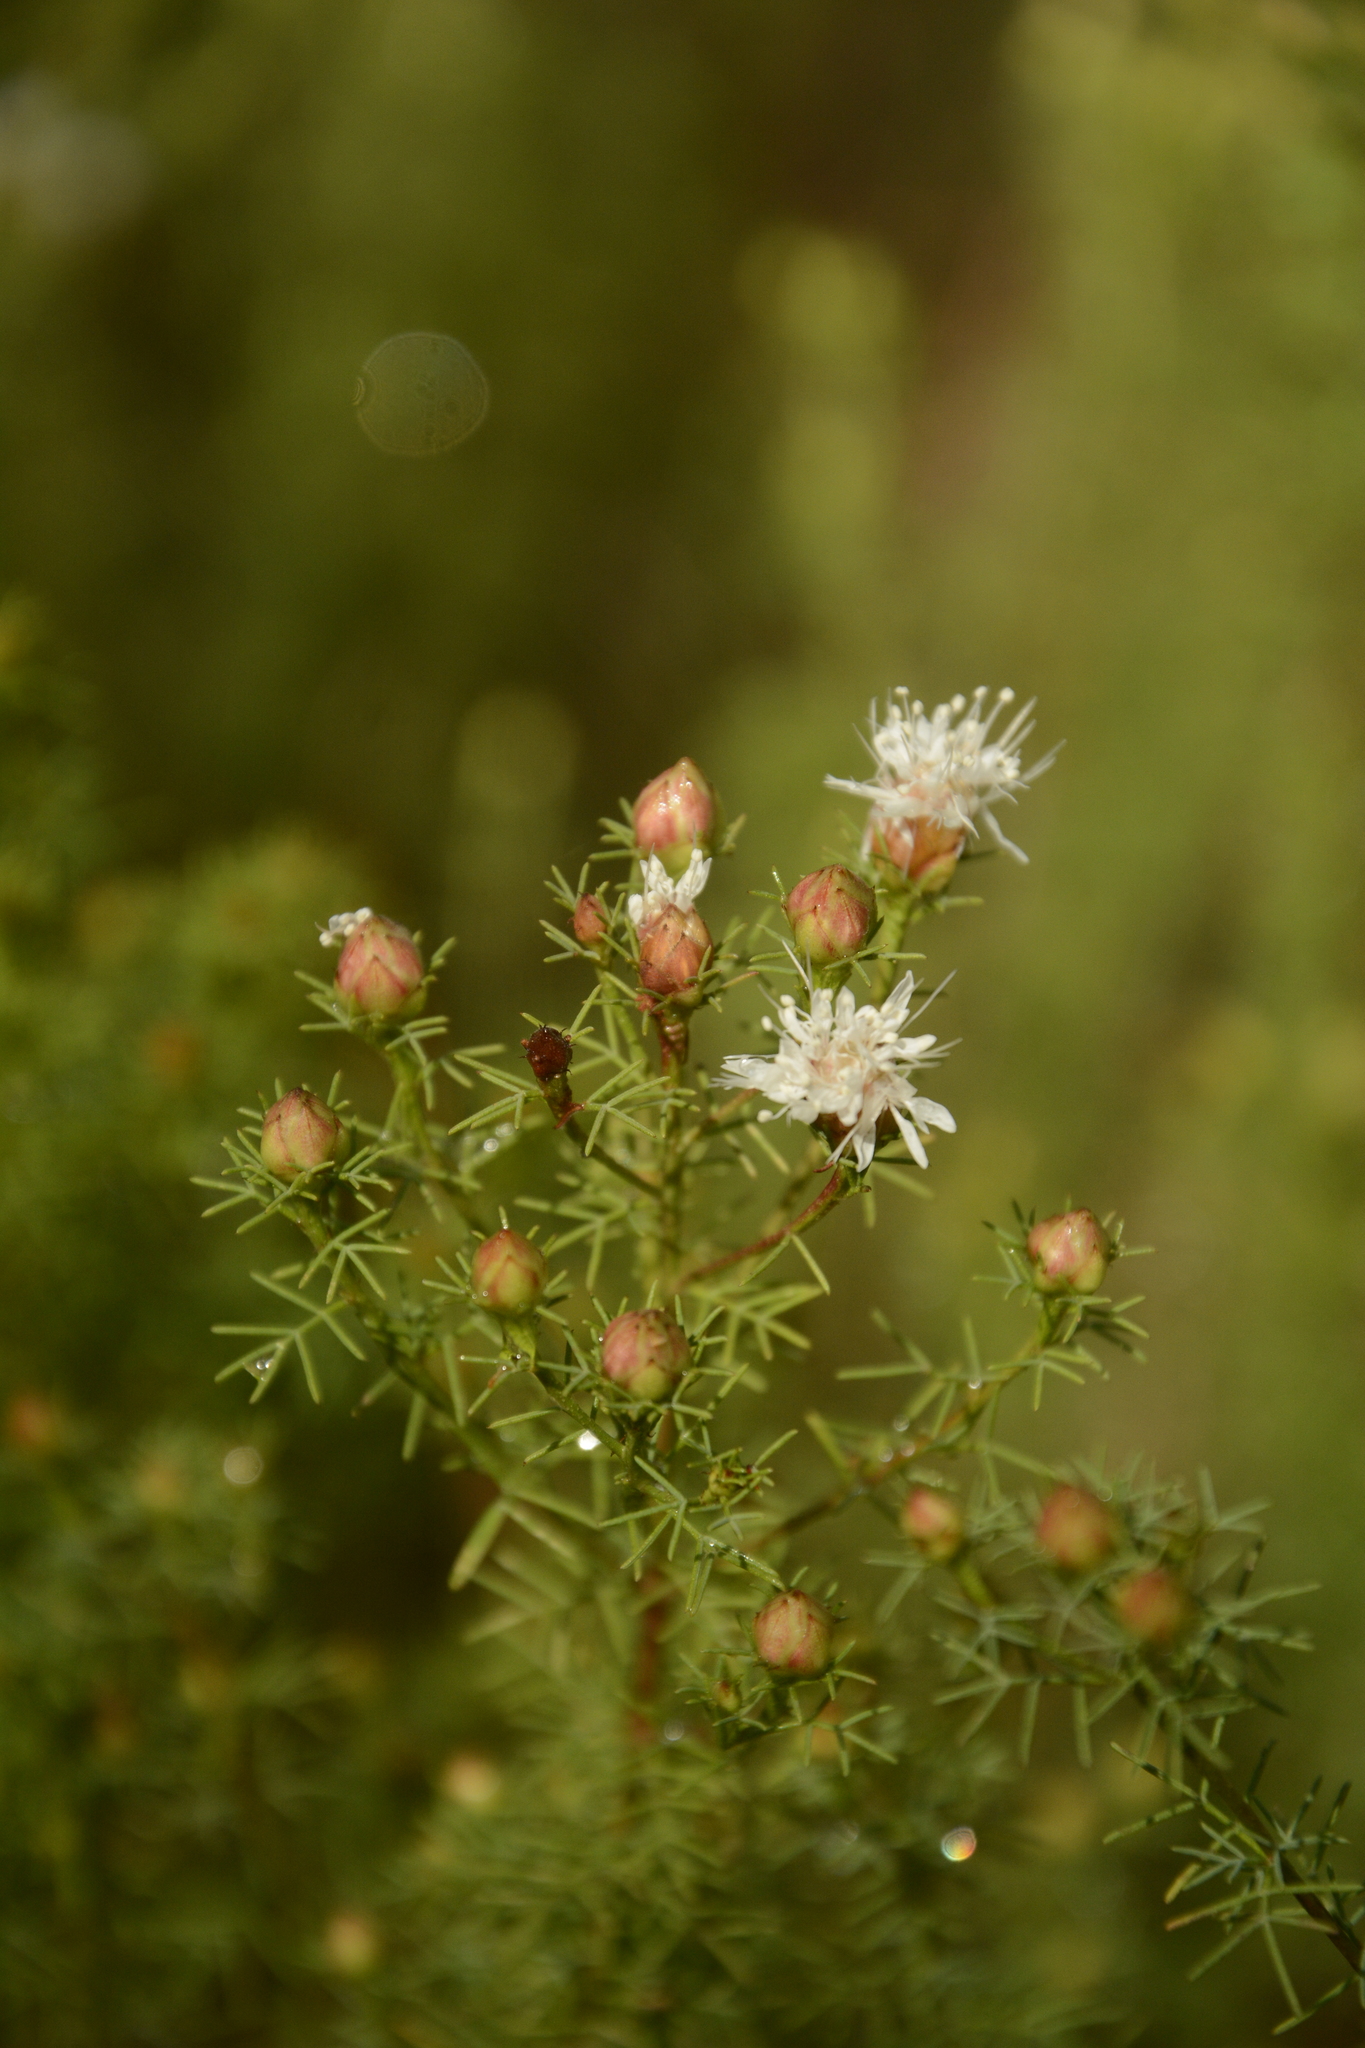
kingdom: Plantae
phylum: Tracheophyta
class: Magnoliopsida
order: Fabales
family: Fabaceae
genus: Dalea
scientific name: Dalea pinnata
